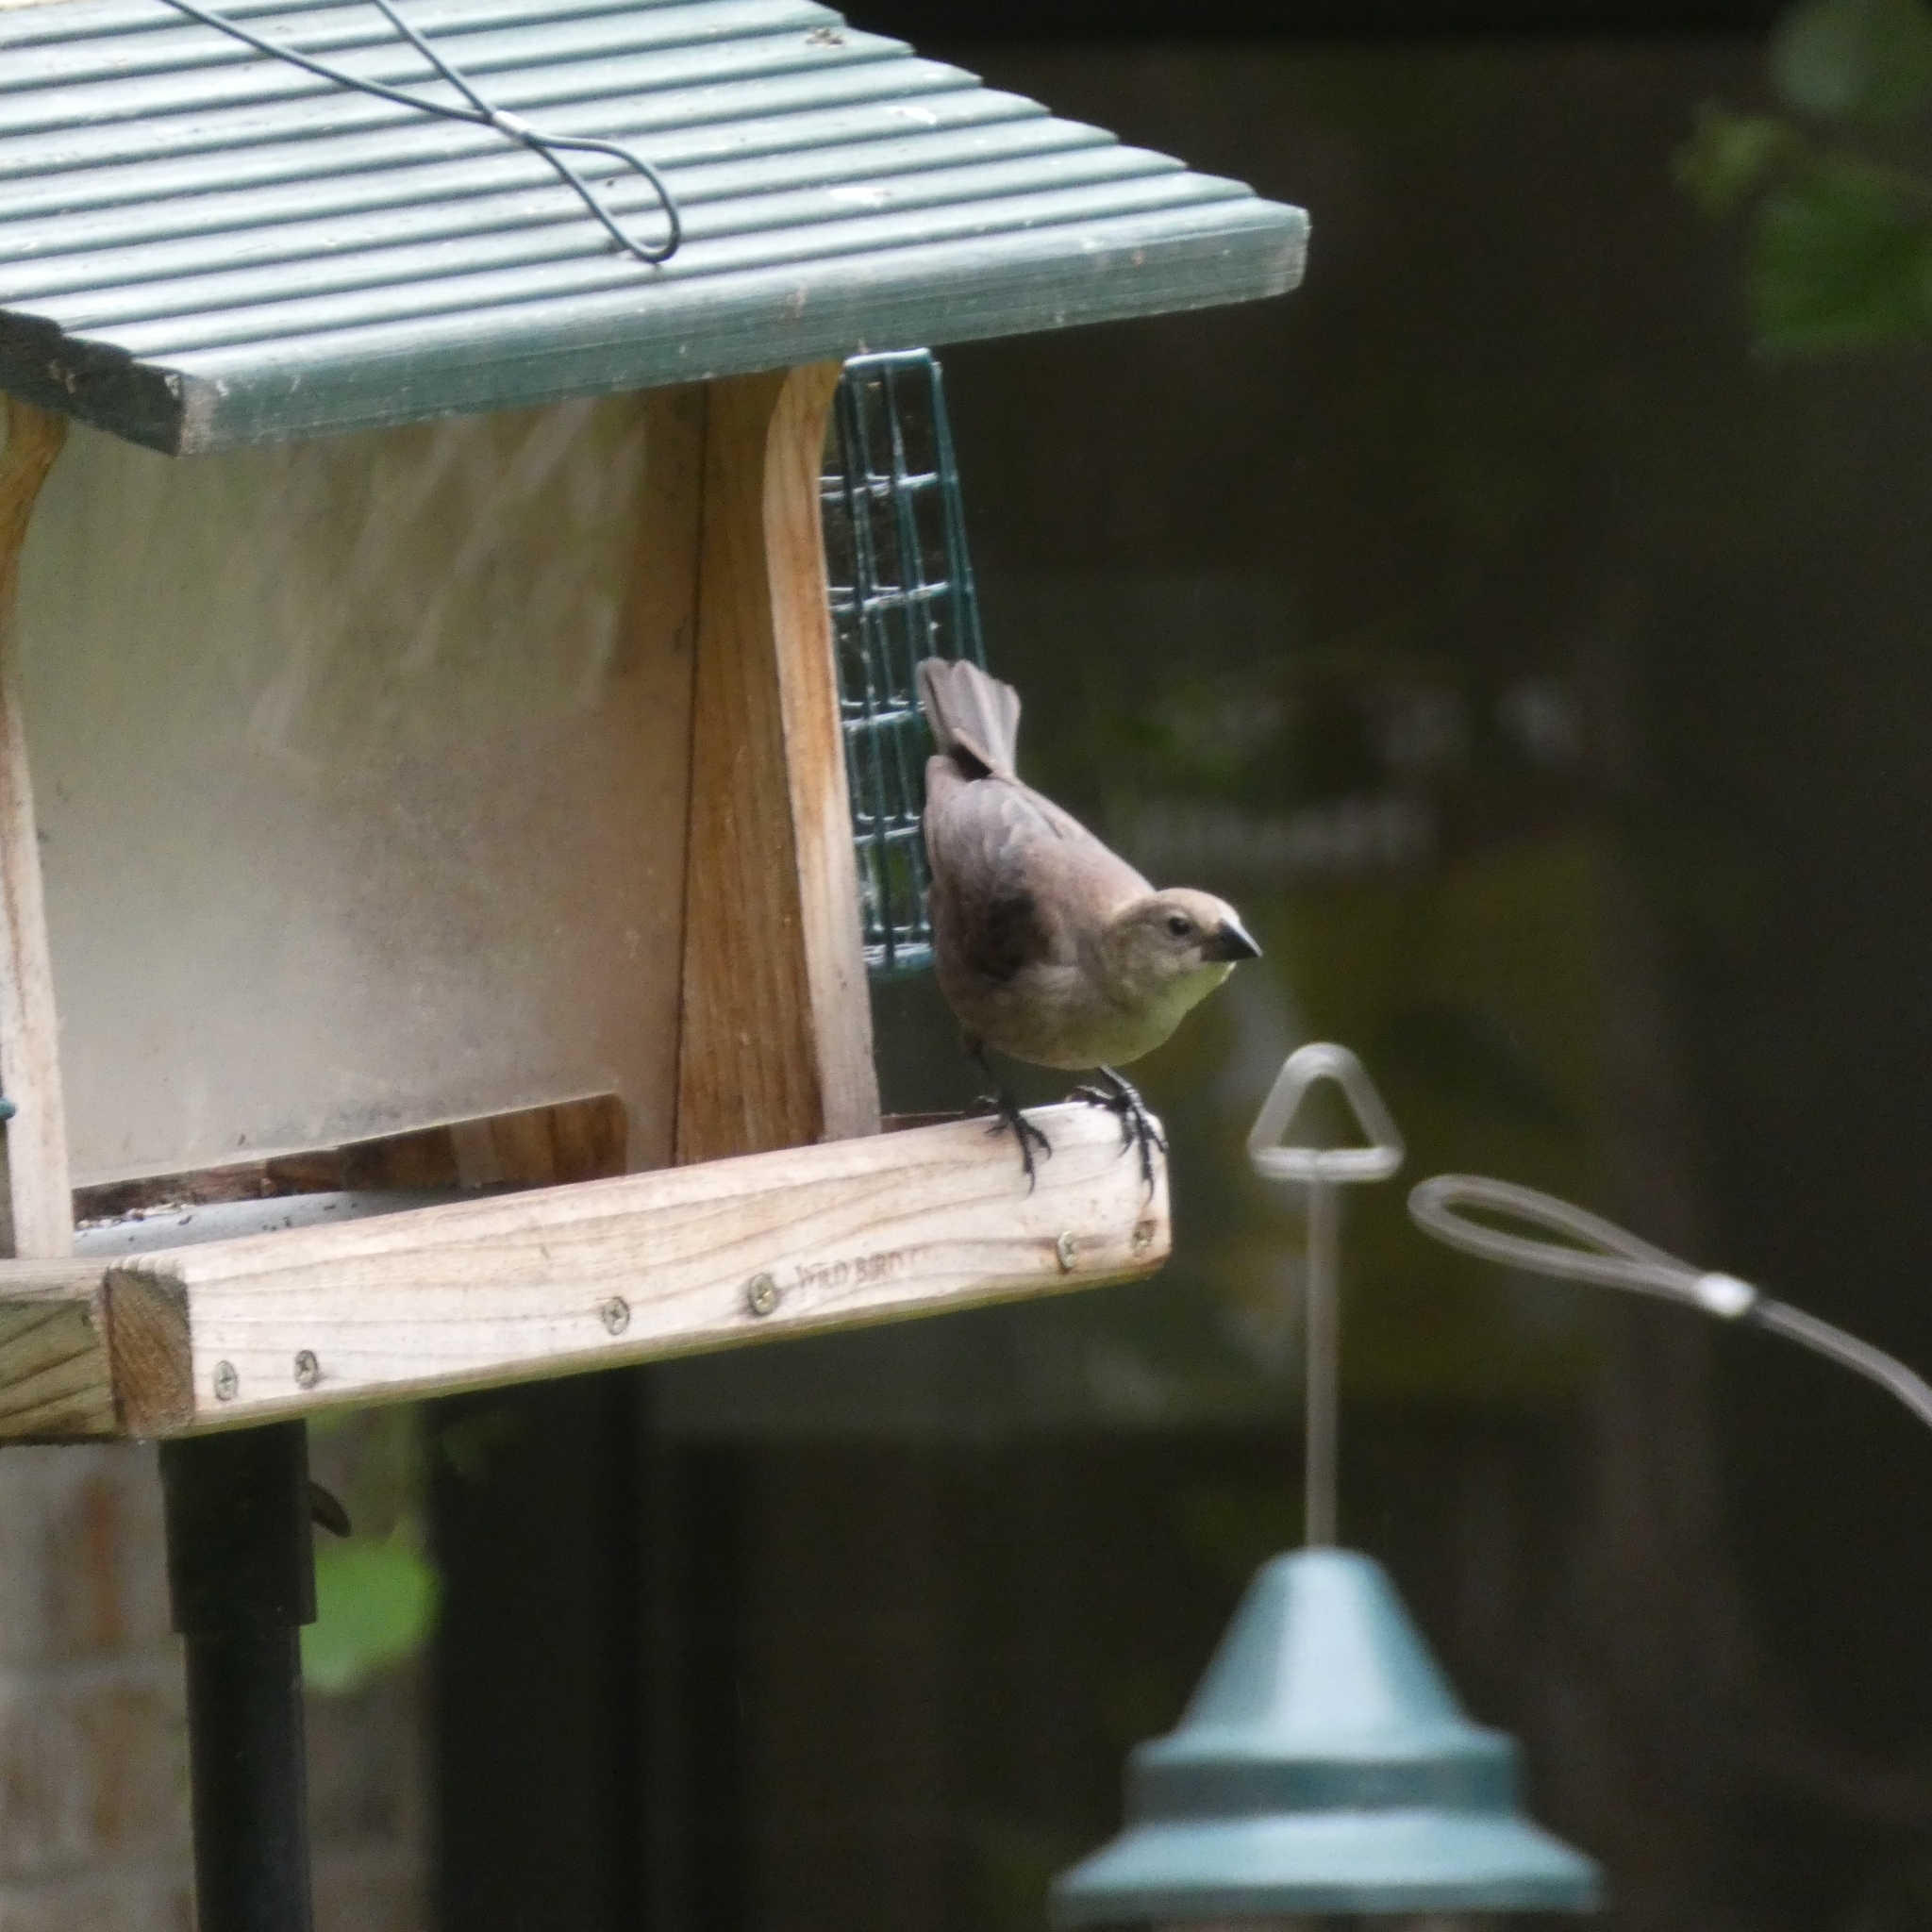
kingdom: Animalia
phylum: Chordata
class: Aves
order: Passeriformes
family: Icteridae
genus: Molothrus
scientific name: Molothrus ater
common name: Brown-headed cowbird
